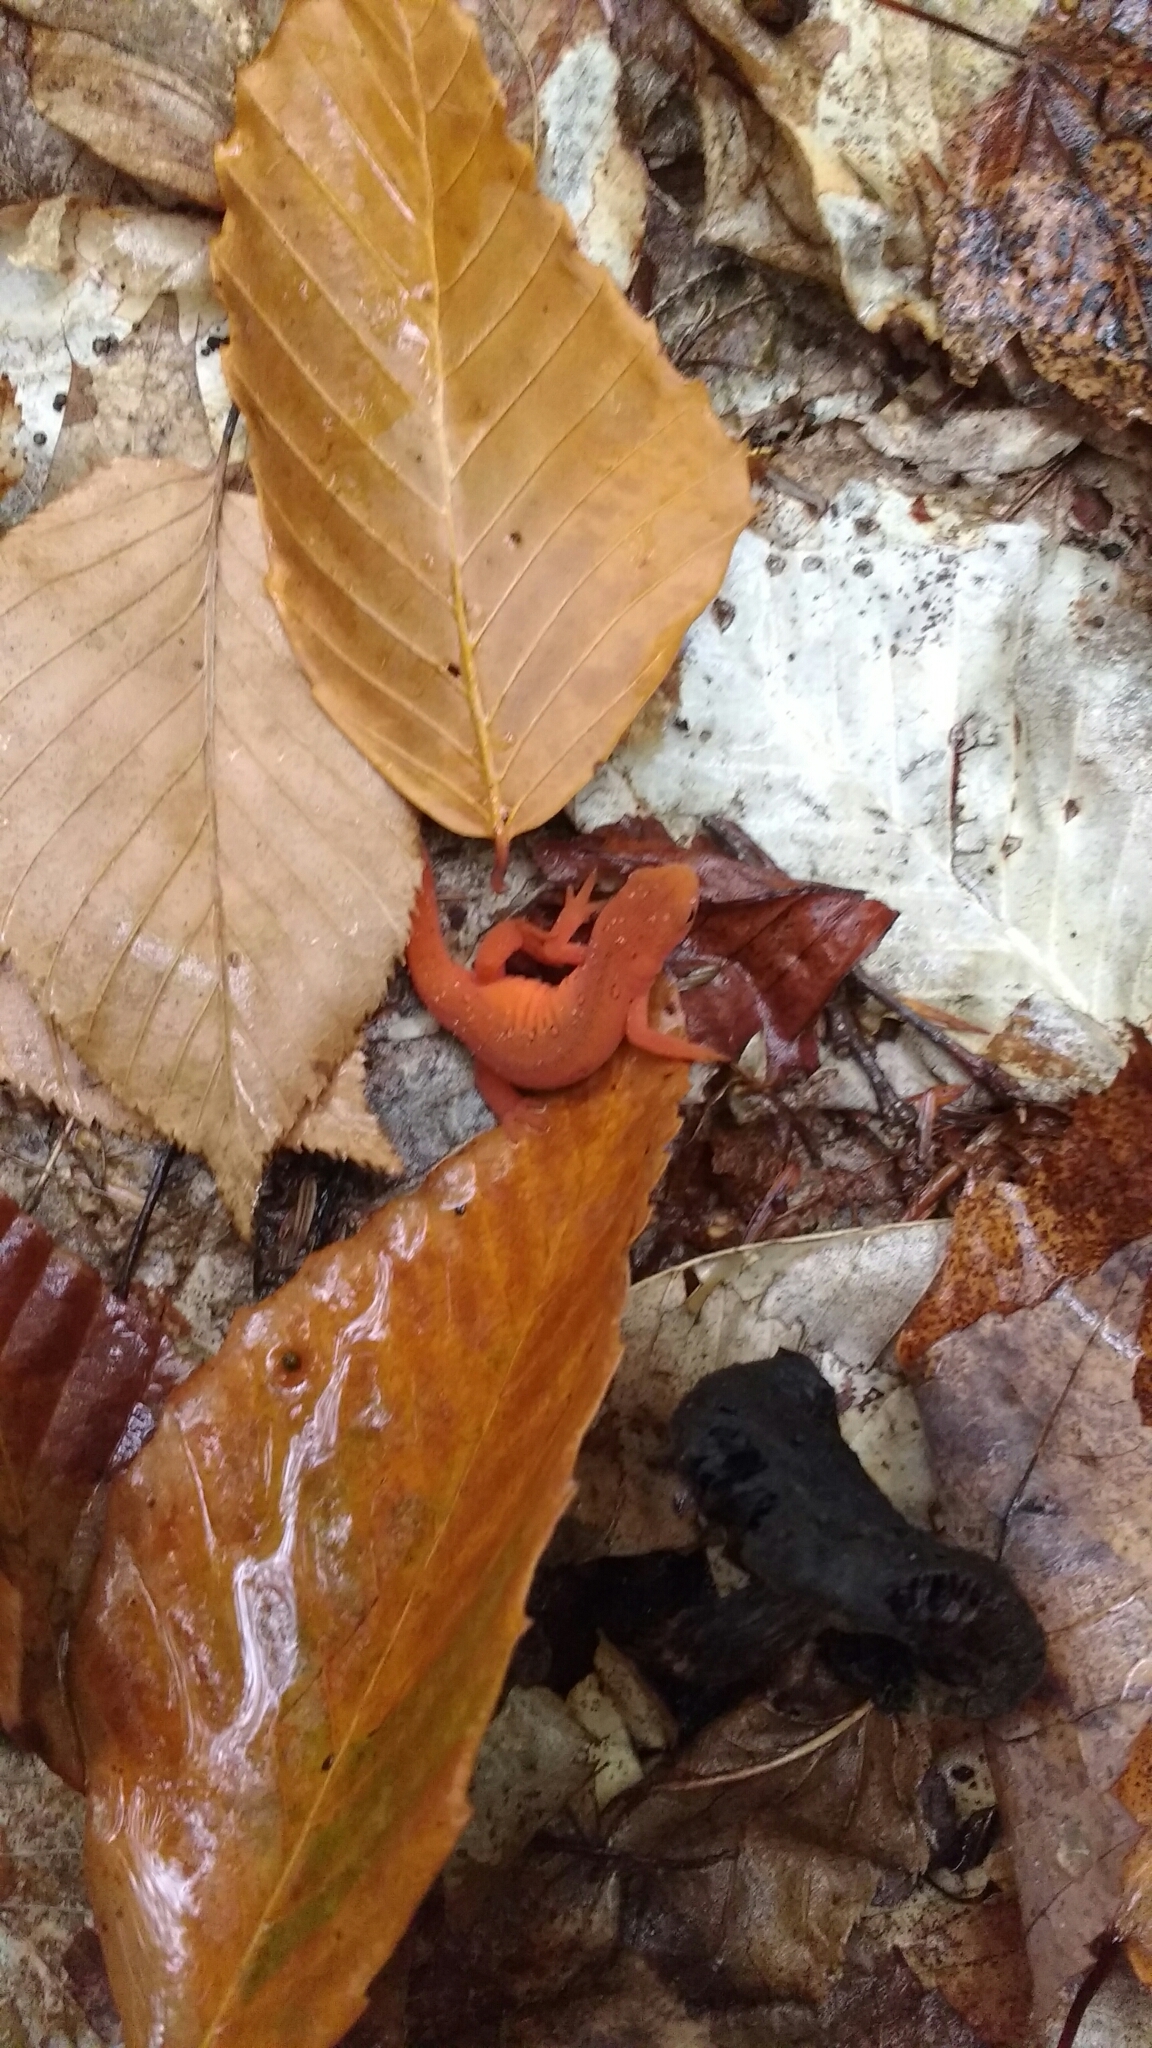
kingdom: Animalia
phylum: Chordata
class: Amphibia
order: Caudata
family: Salamandridae
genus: Notophthalmus
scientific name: Notophthalmus viridescens
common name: Eastern newt
